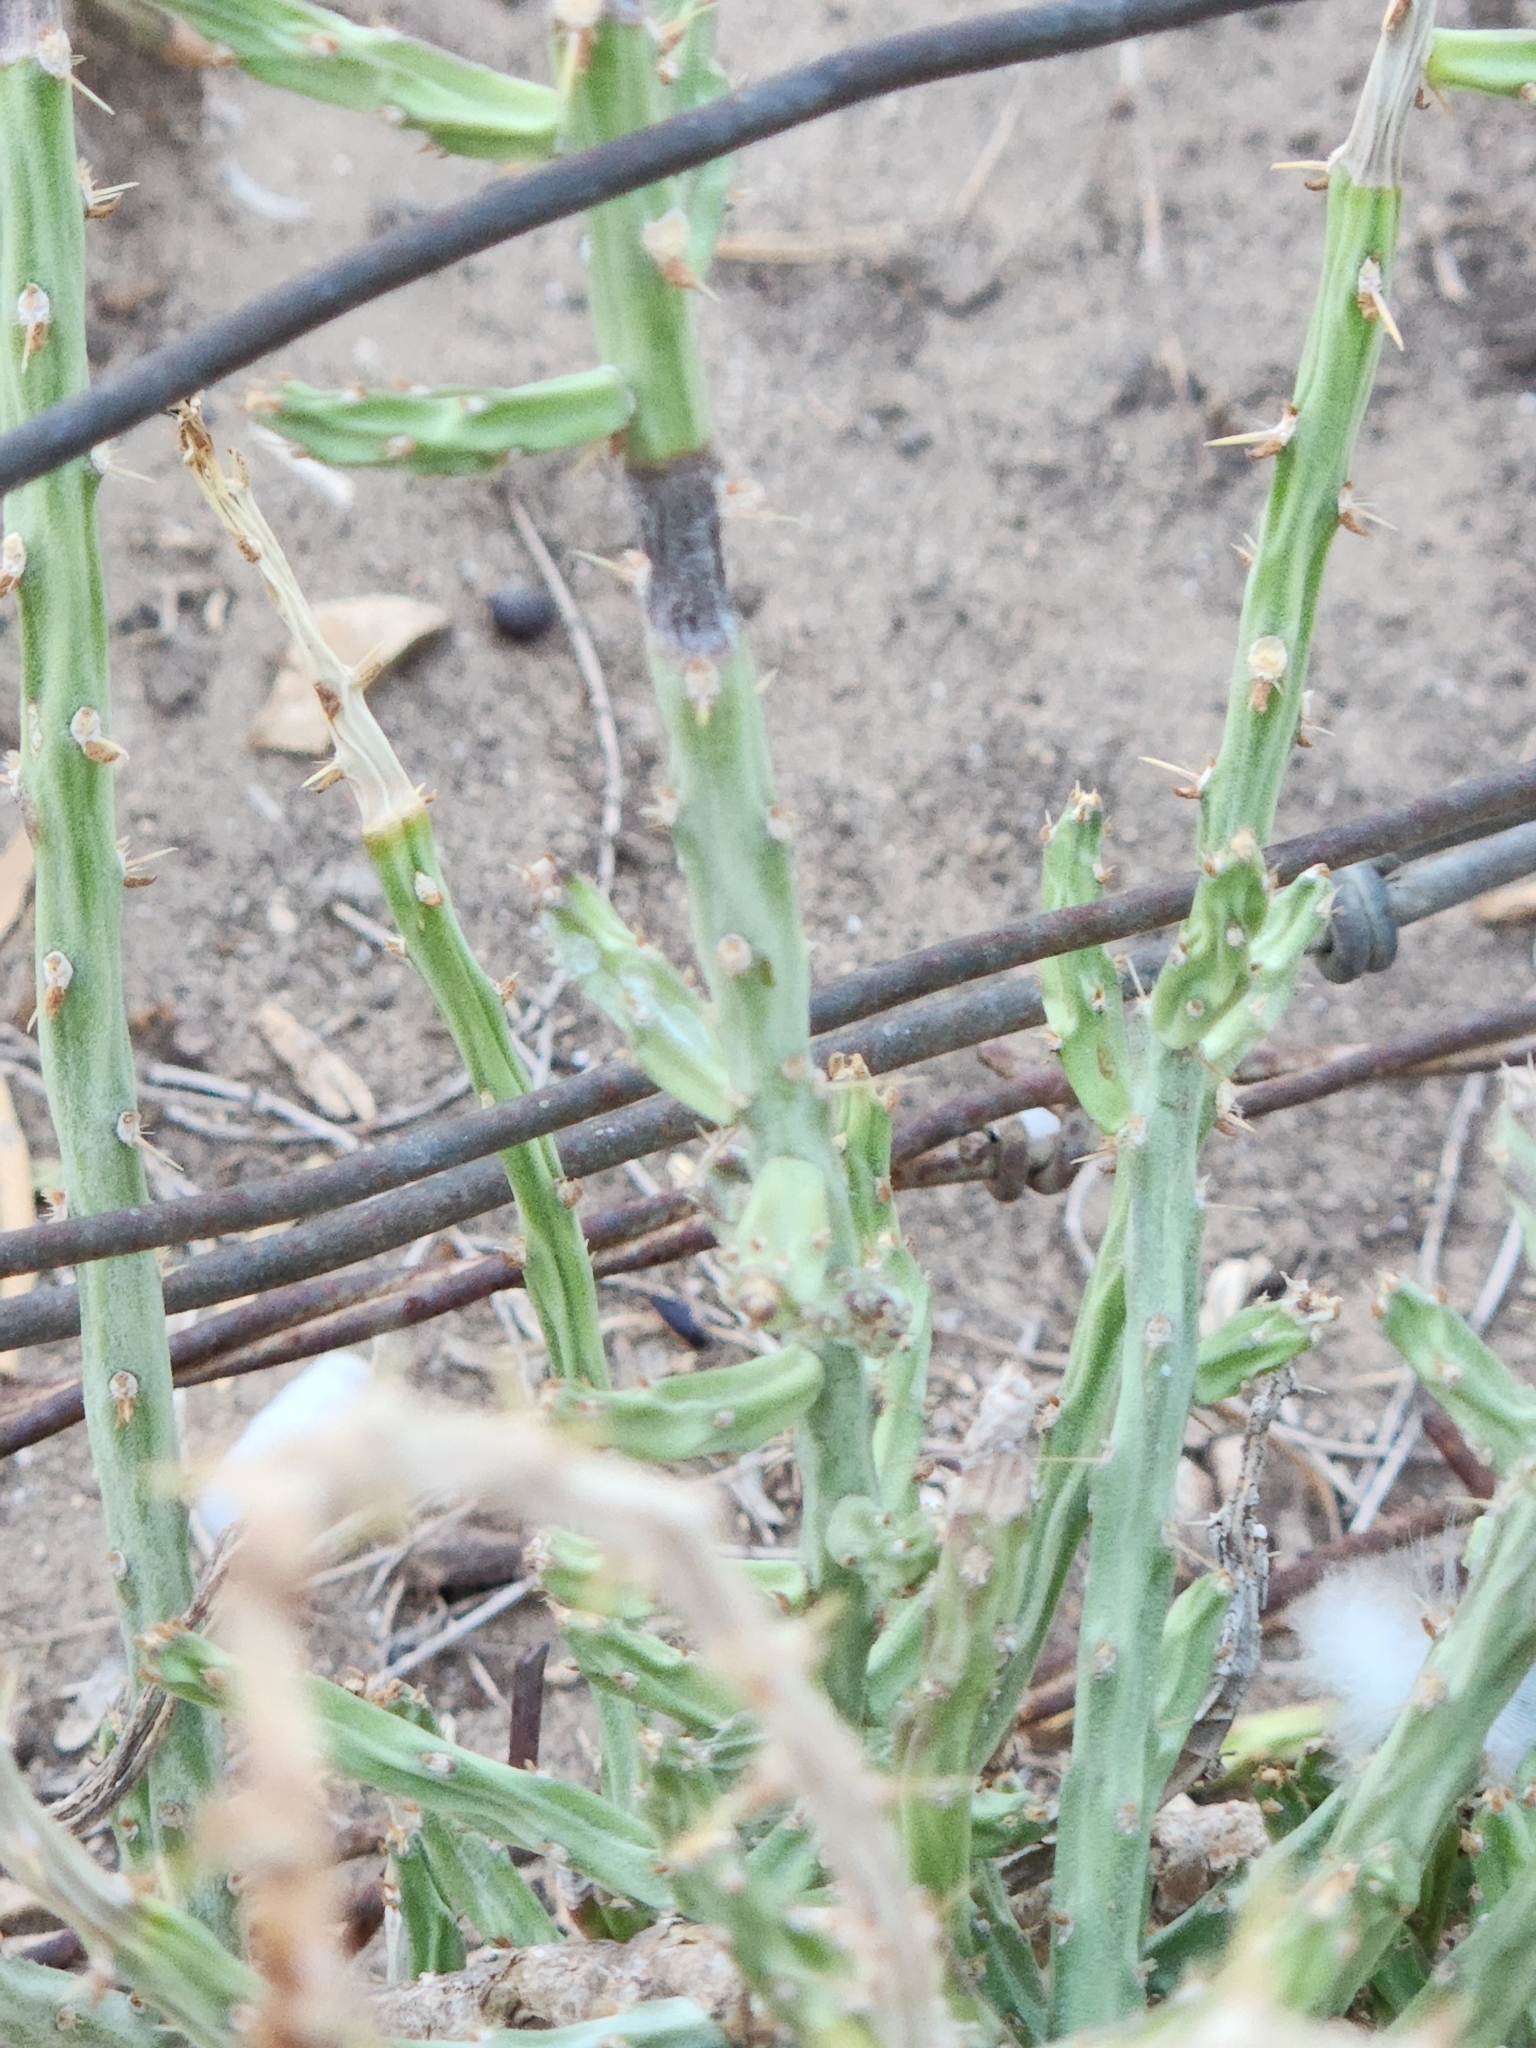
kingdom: Plantae
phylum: Tracheophyta
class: Magnoliopsida
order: Caryophyllales
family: Cactaceae
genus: Cylindropuntia
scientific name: Cylindropuntia leptocaulis
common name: Christmas cactus
